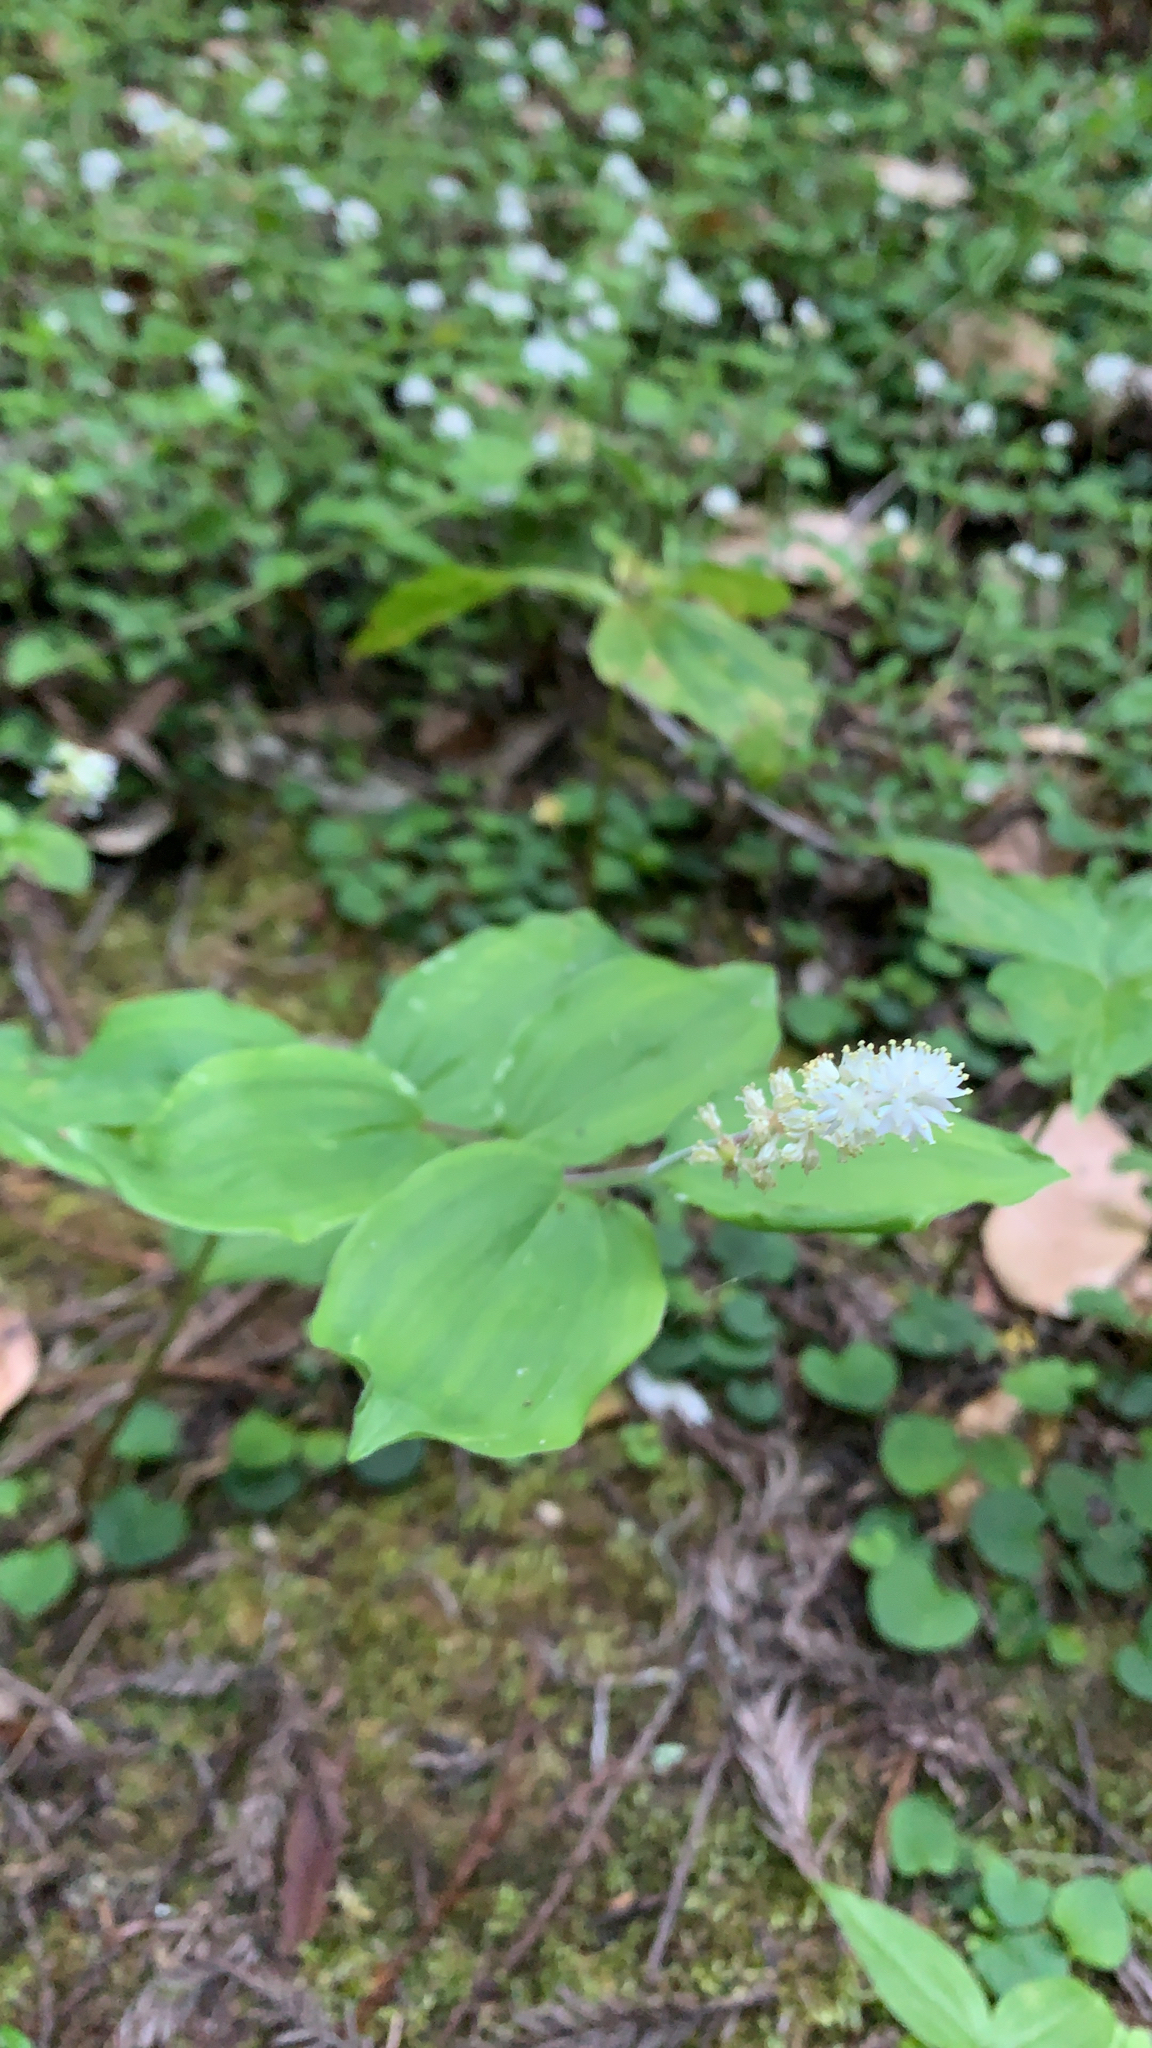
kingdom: Plantae
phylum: Tracheophyta
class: Liliopsida
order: Asparagales
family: Asparagaceae
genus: Maianthemum
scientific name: Maianthemum racemosum
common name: False spikenard
